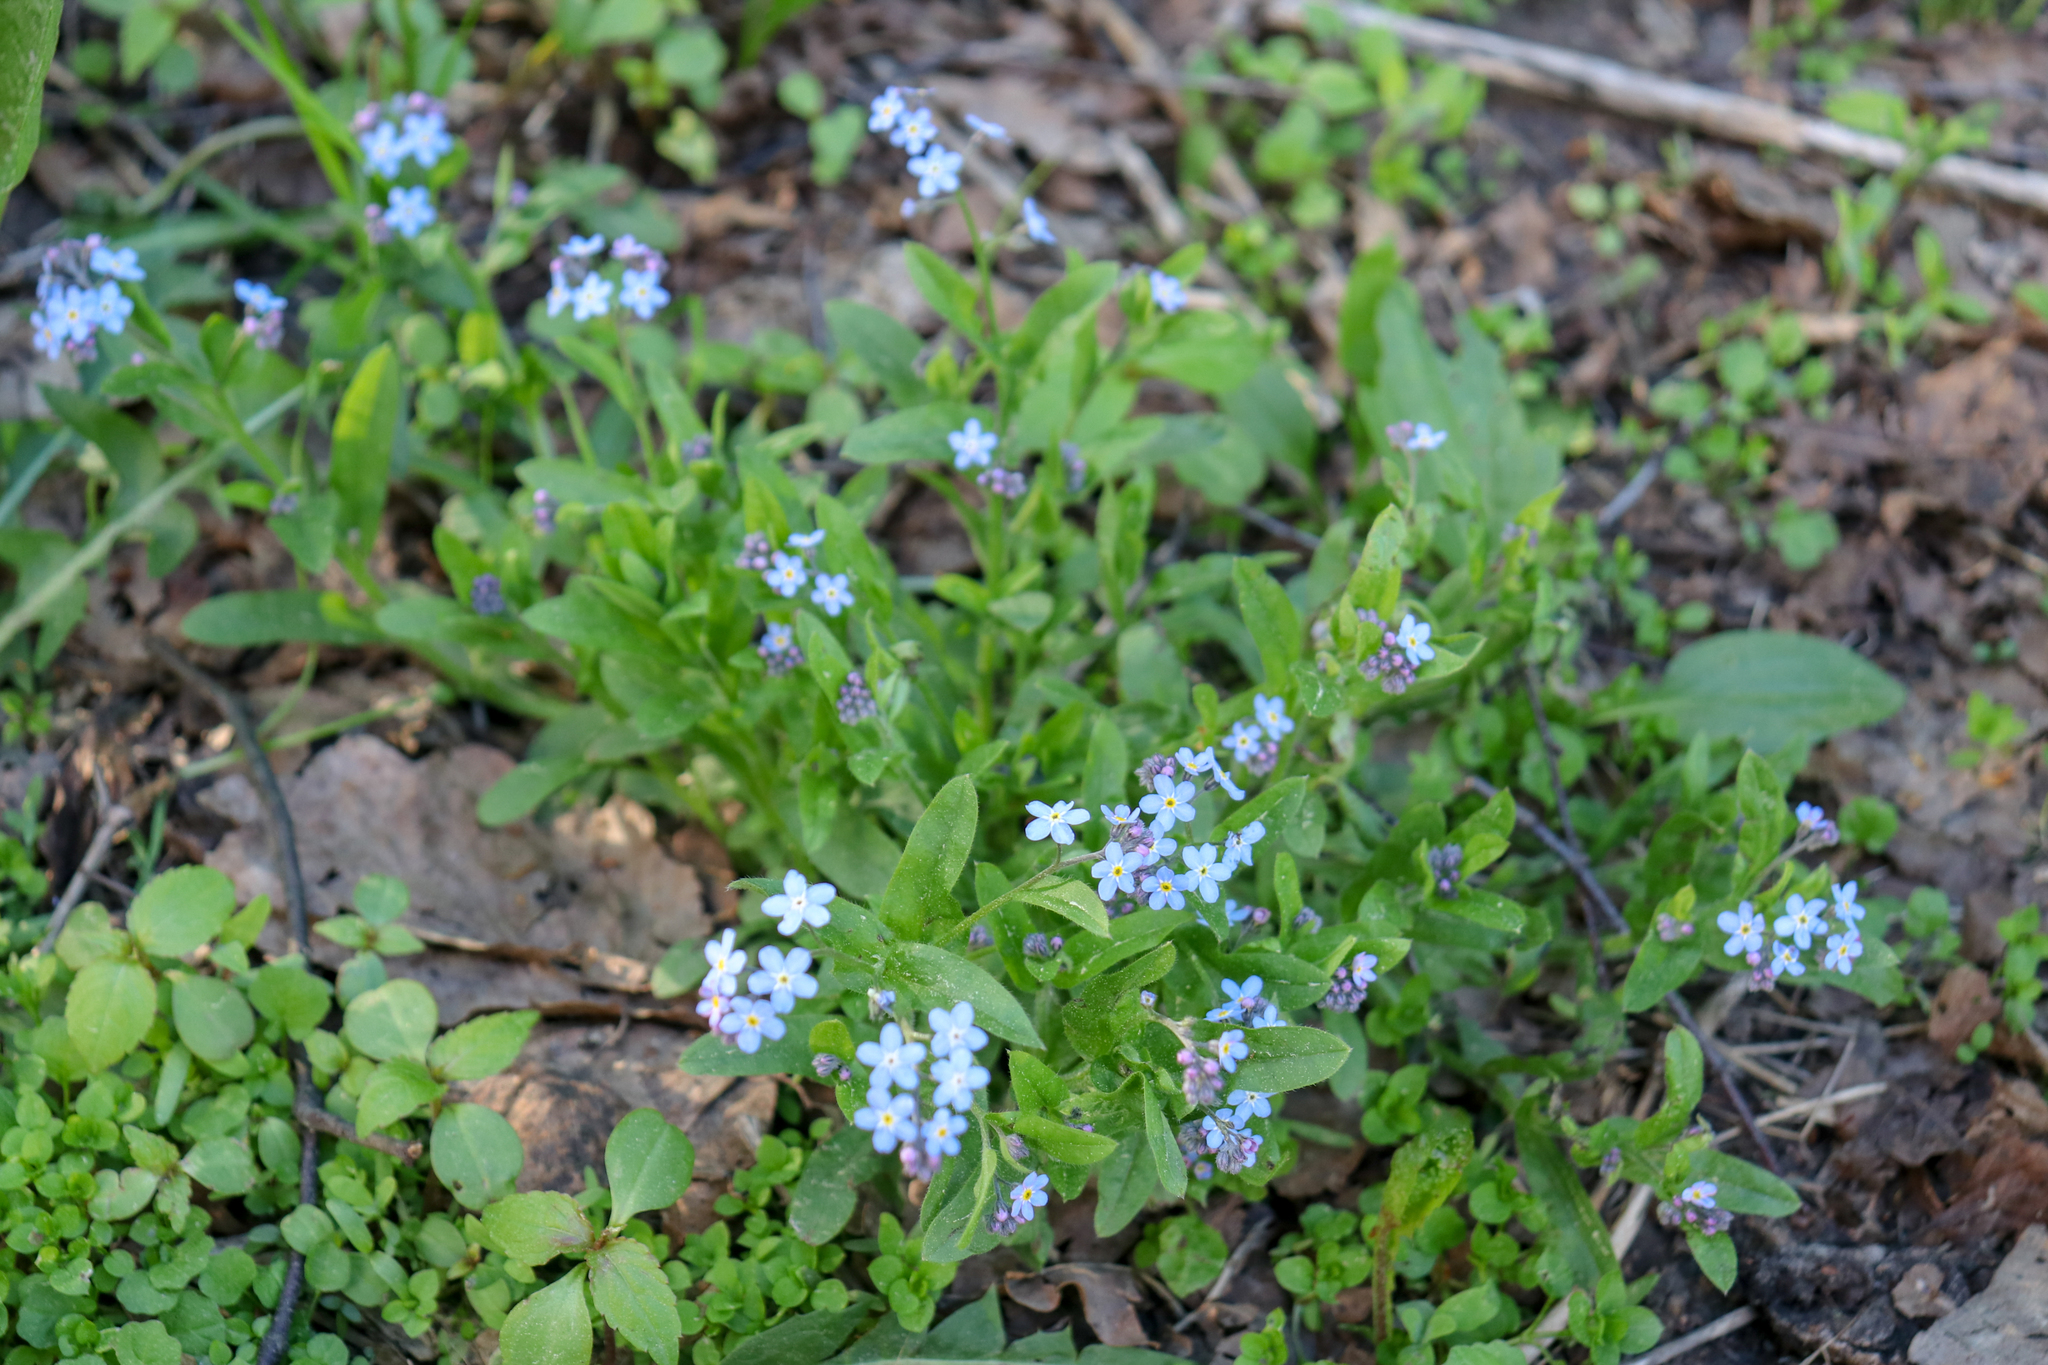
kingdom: Plantae
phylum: Tracheophyta
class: Magnoliopsida
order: Boraginales
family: Boraginaceae
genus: Myosotis
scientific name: Myosotis sylvatica
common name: Wood forget-me-not
